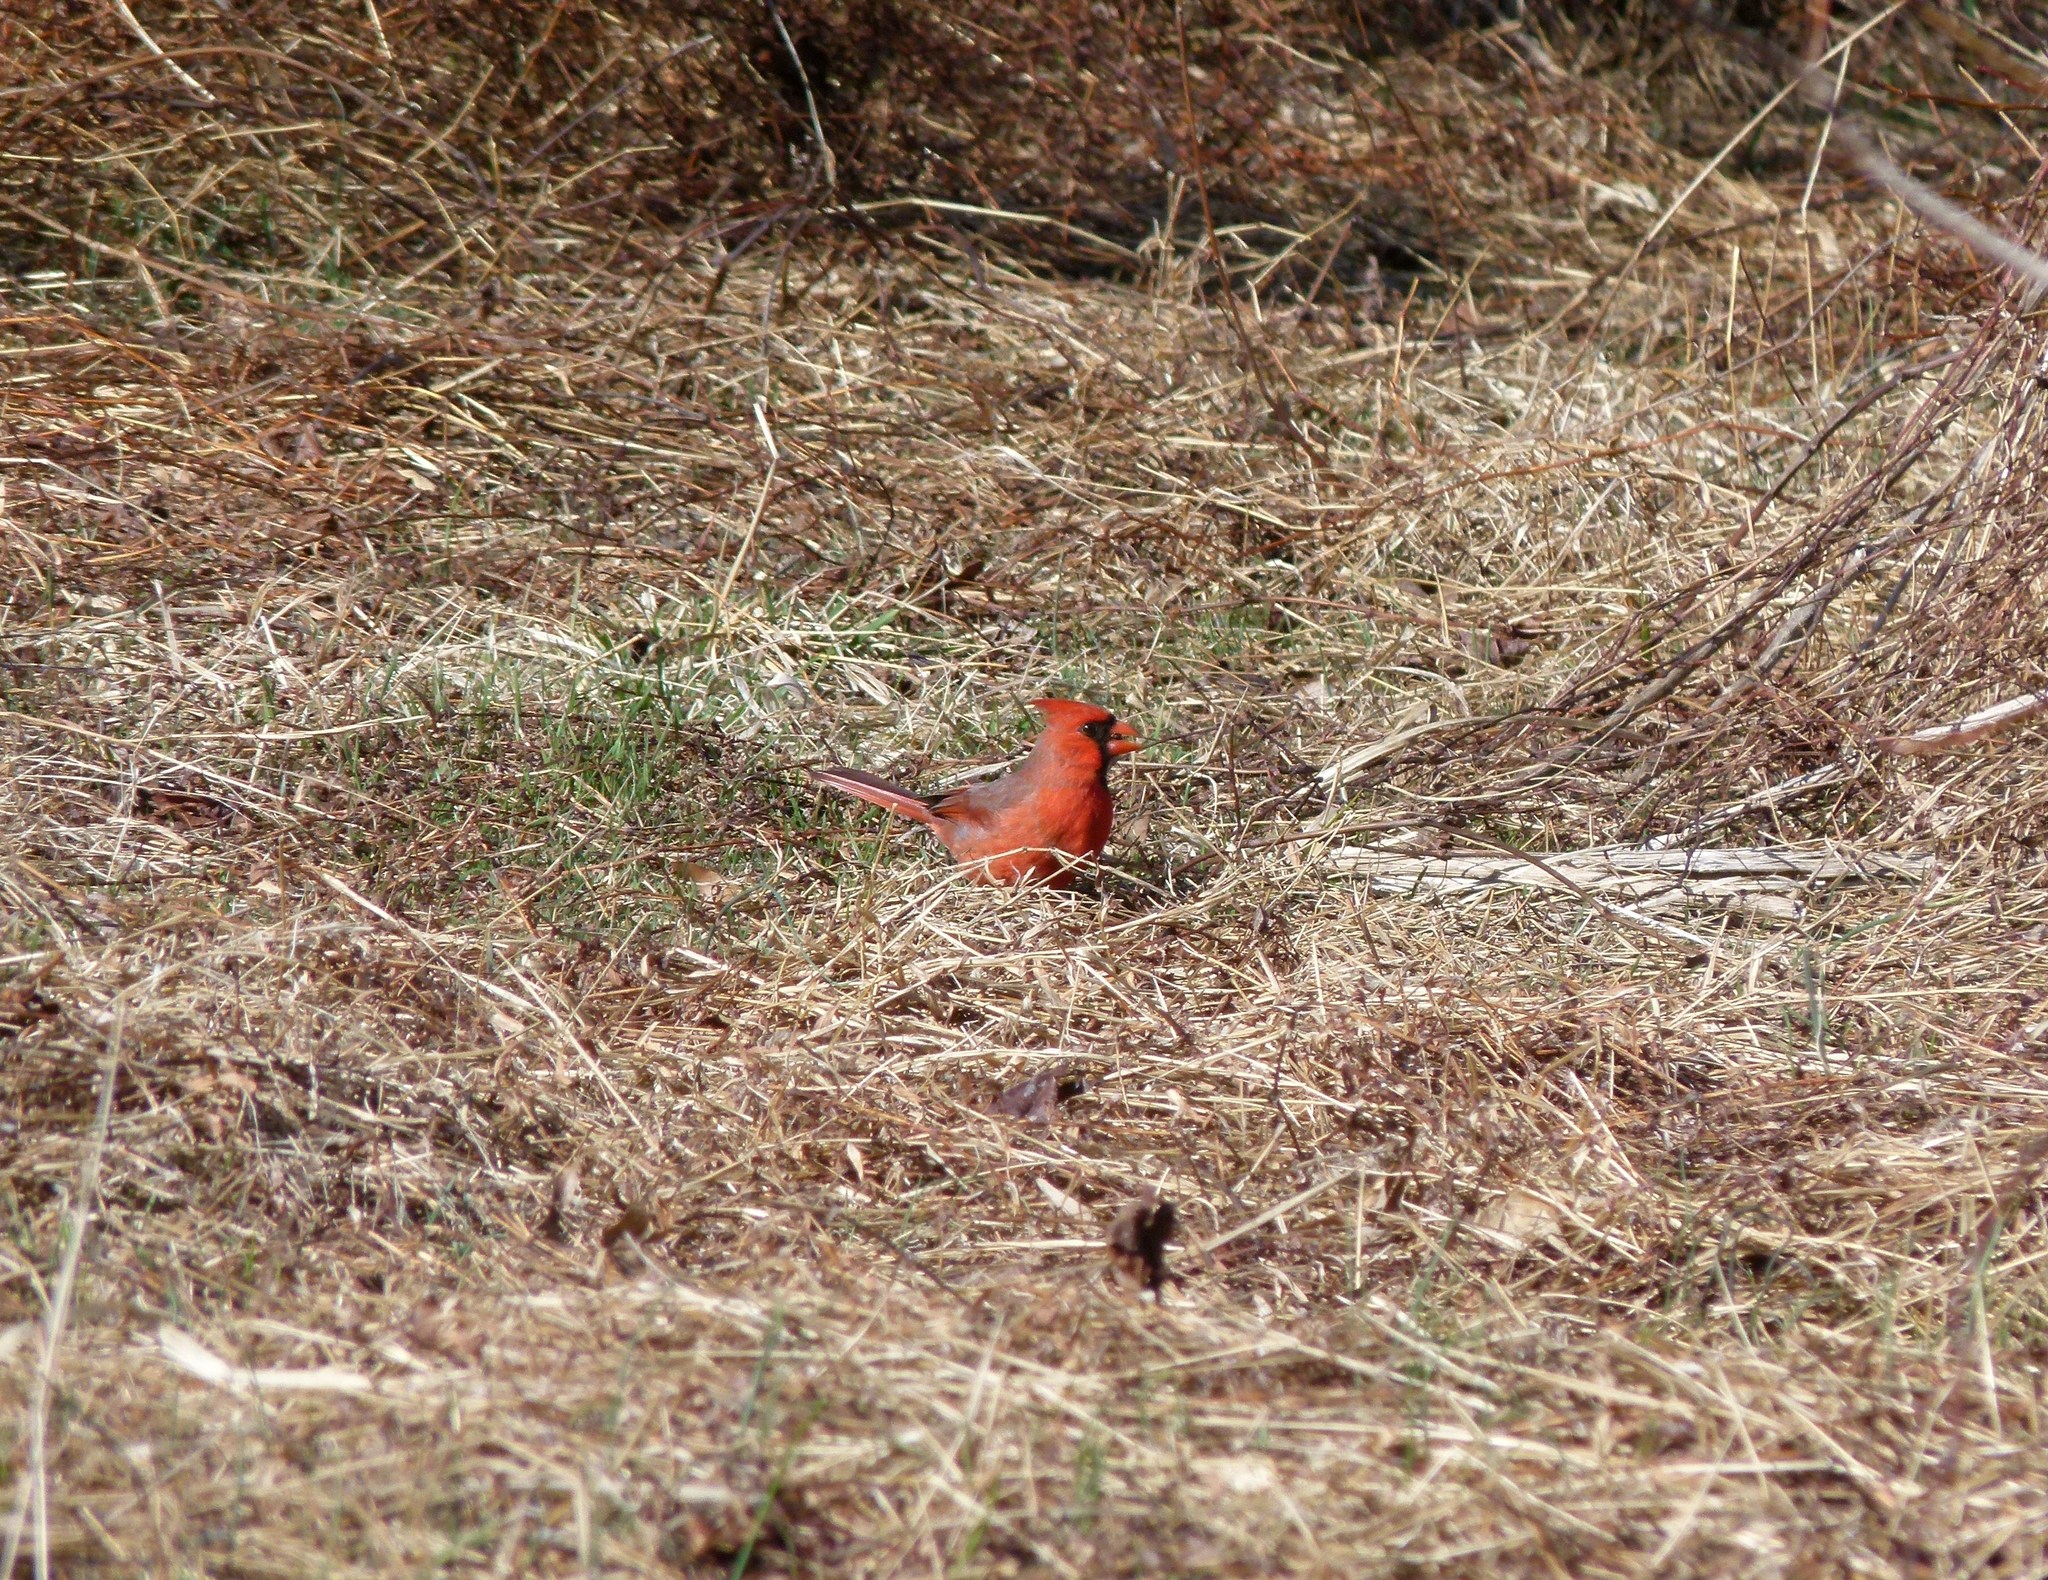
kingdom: Animalia
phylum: Chordata
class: Aves
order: Passeriformes
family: Cardinalidae
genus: Cardinalis
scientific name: Cardinalis cardinalis
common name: Northern cardinal
